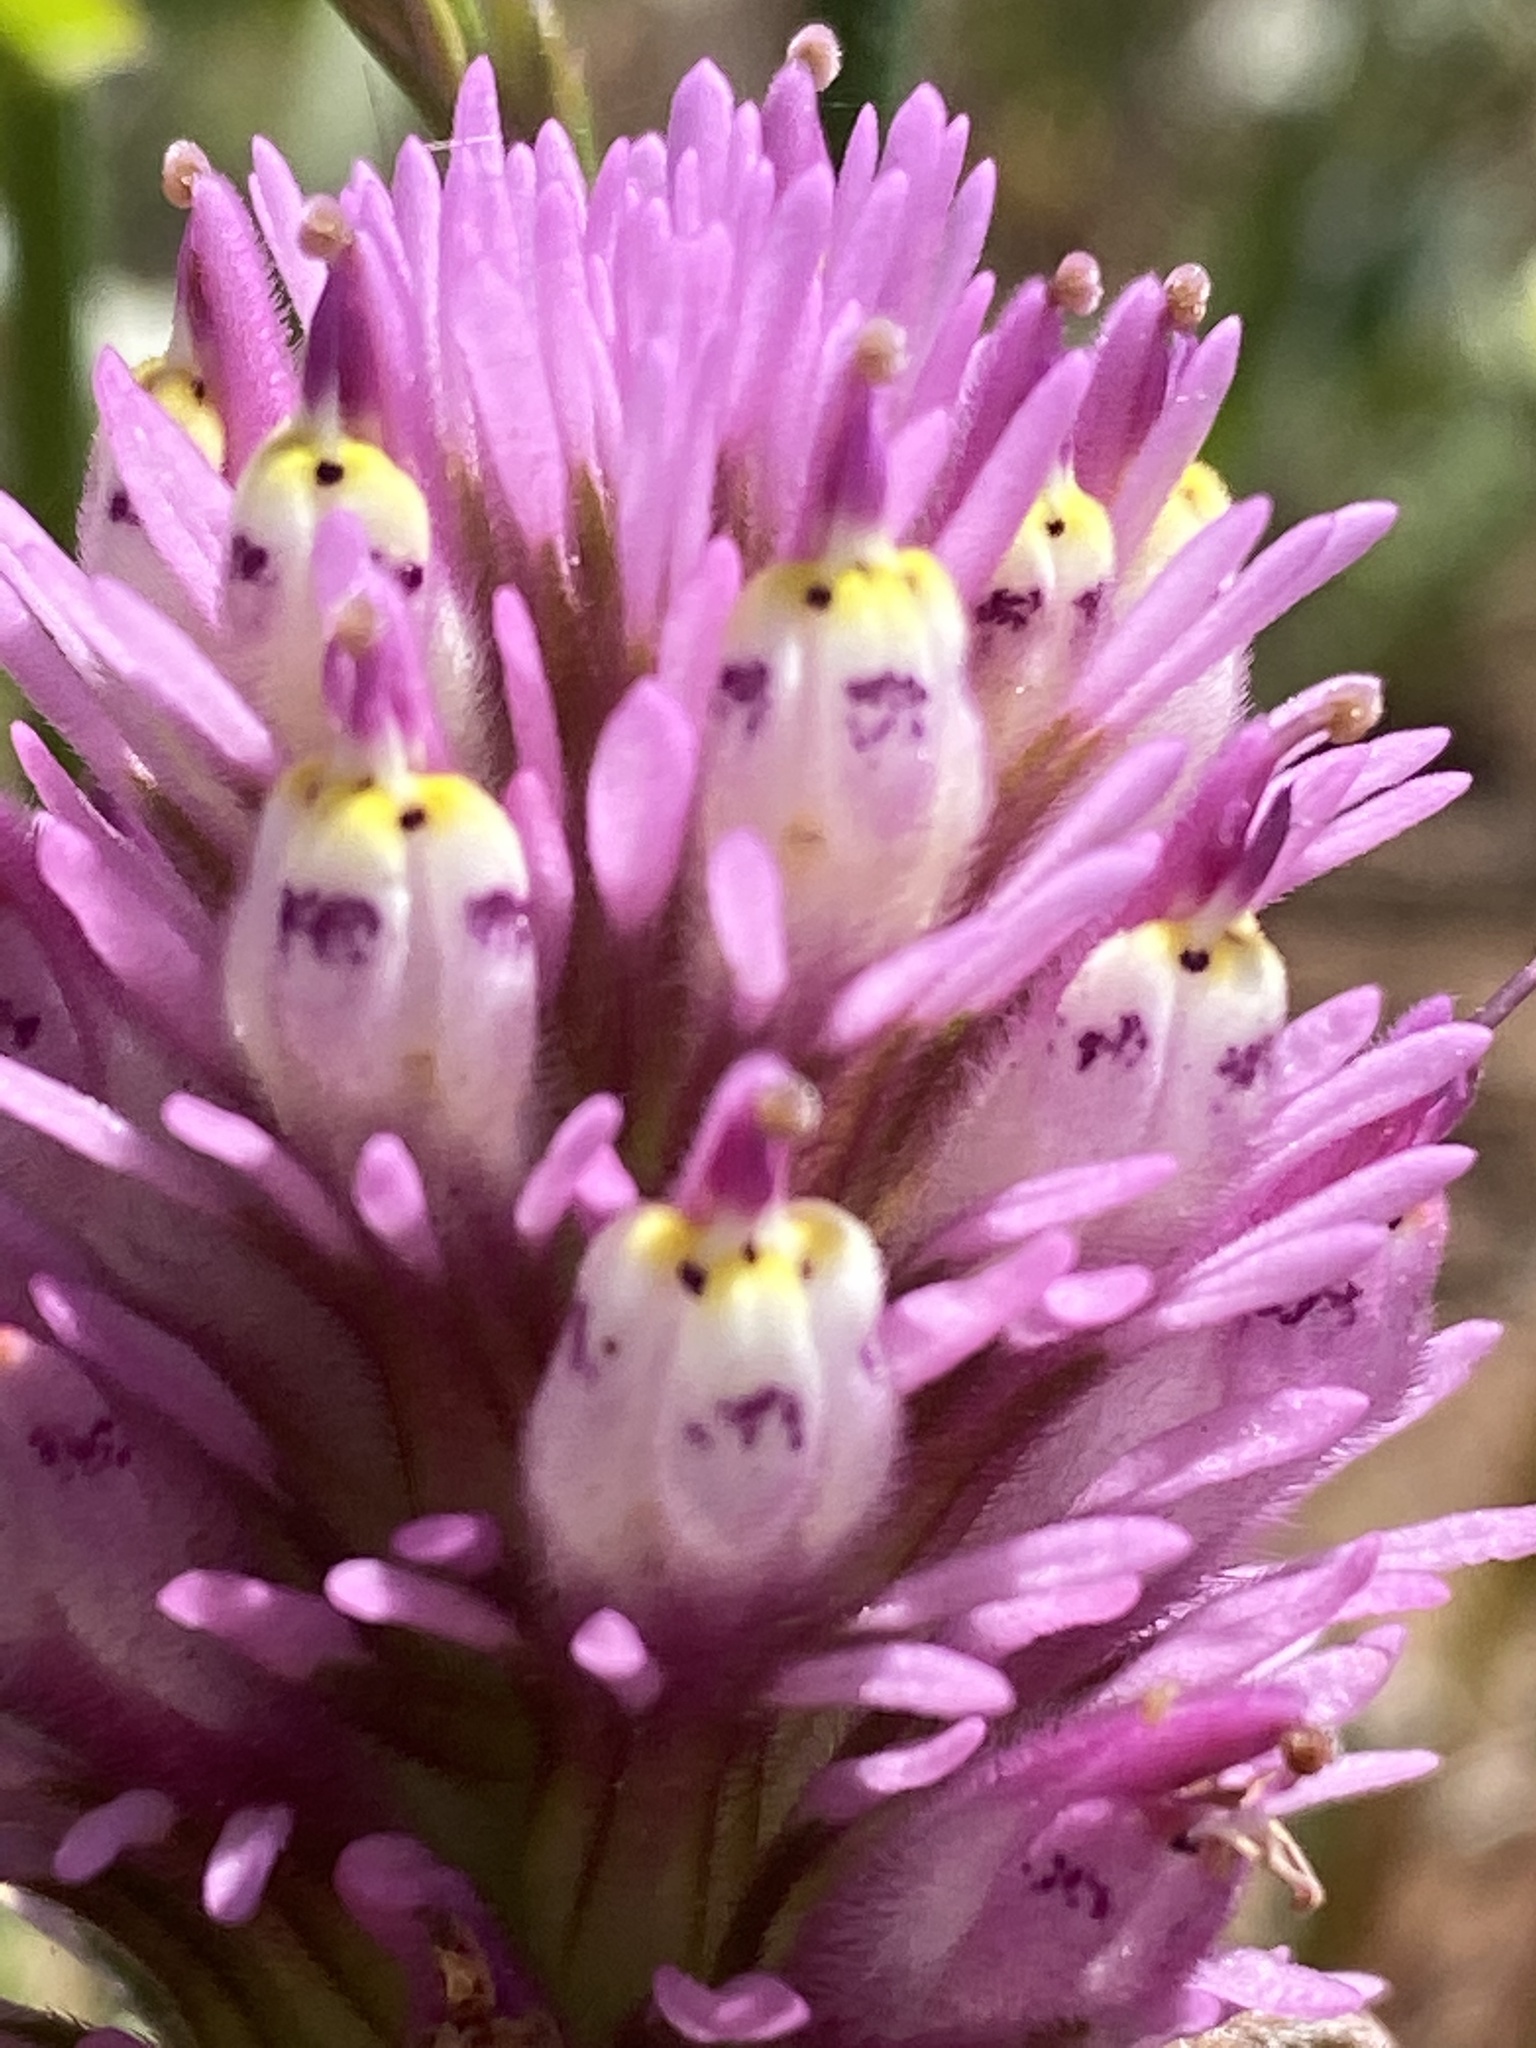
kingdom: Plantae
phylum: Tracheophyta
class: Magnoliopsida
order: Lamiales
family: Orobanchaceae
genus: Castilleja
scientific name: Castilleja densiflora
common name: Dense-flower indian paintbrush
